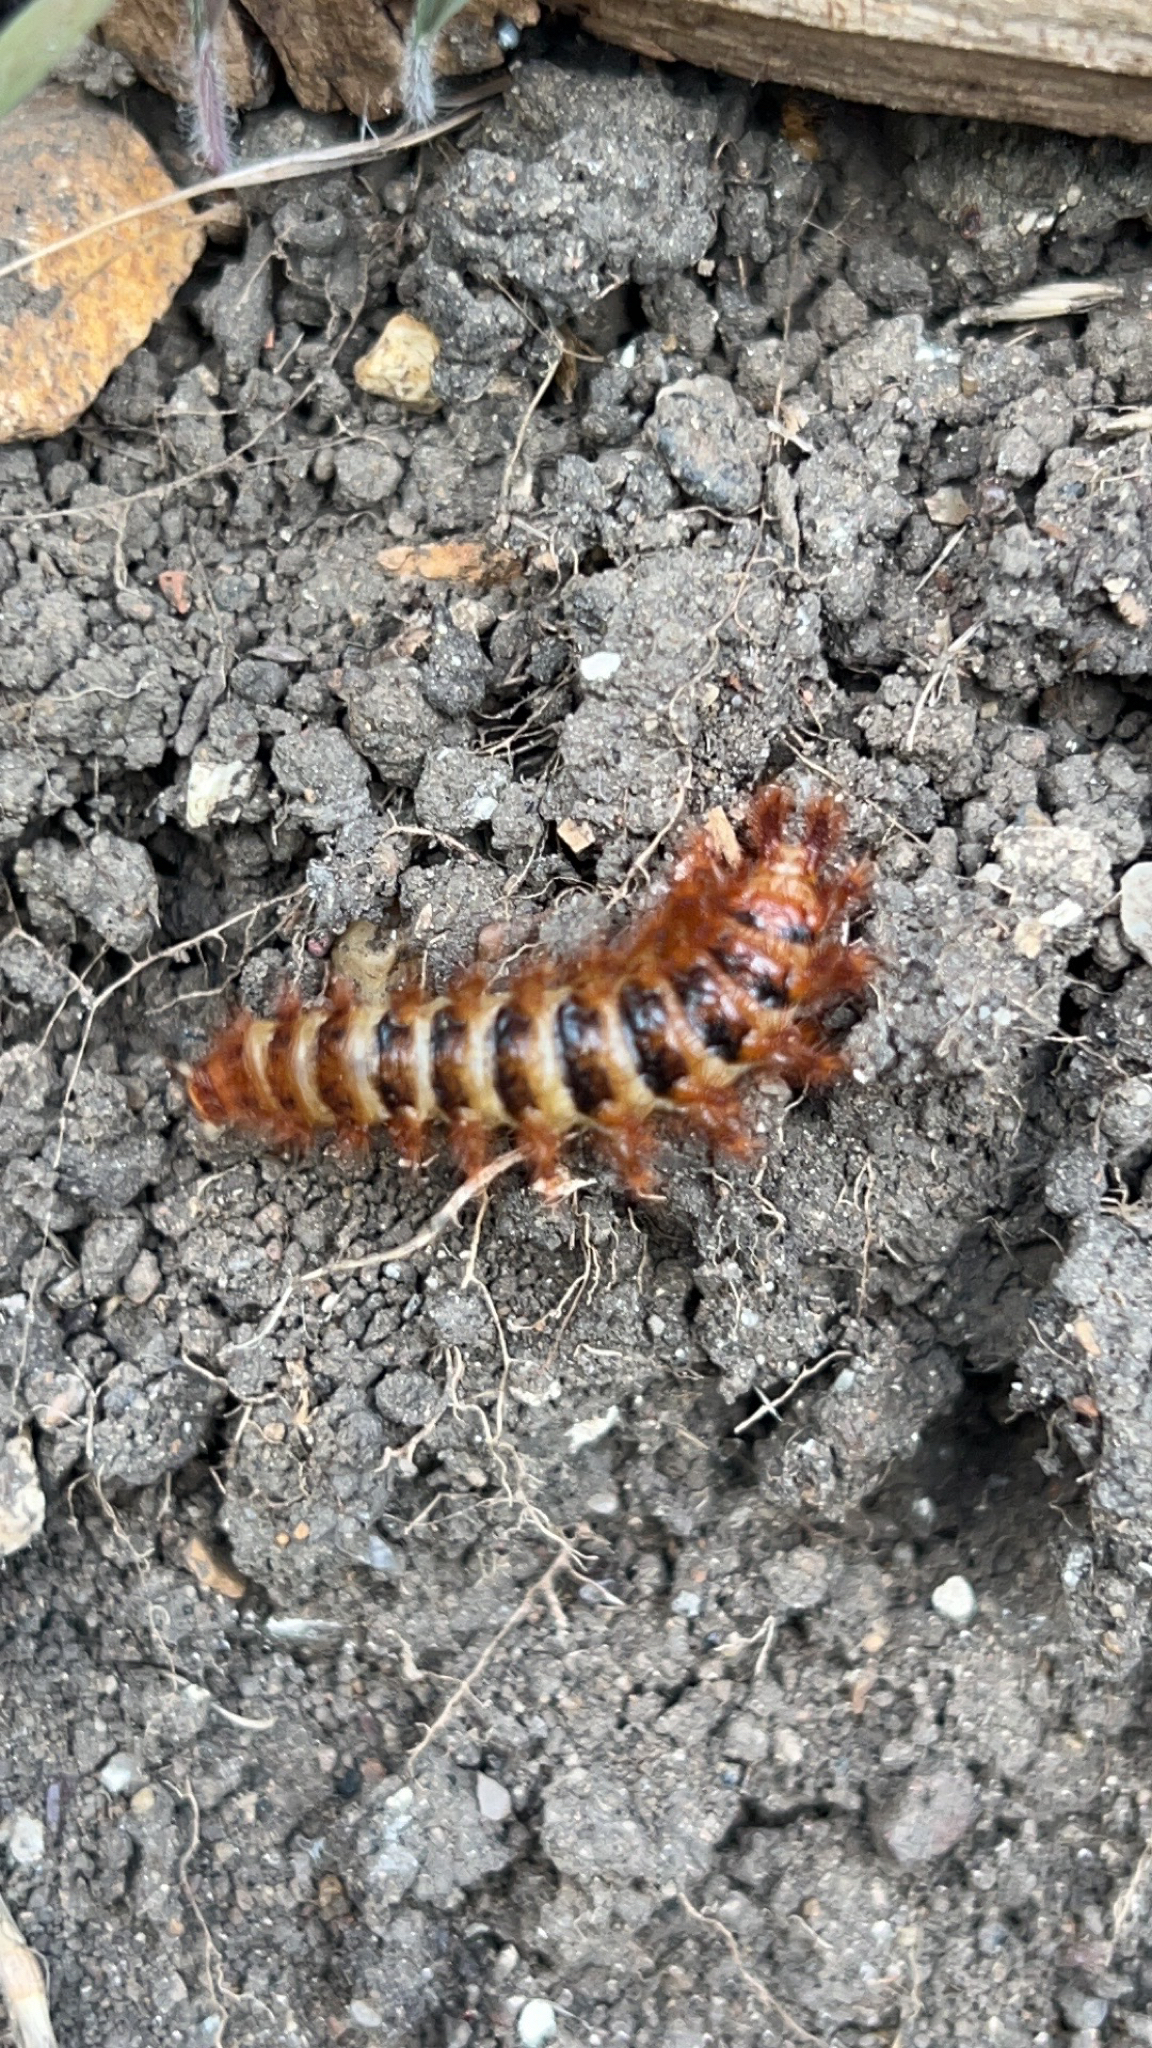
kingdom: Animalia
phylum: Arthropoda
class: Insecta
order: Coleoptera
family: Drilidae
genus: Drilus
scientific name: Drilus flavescens
